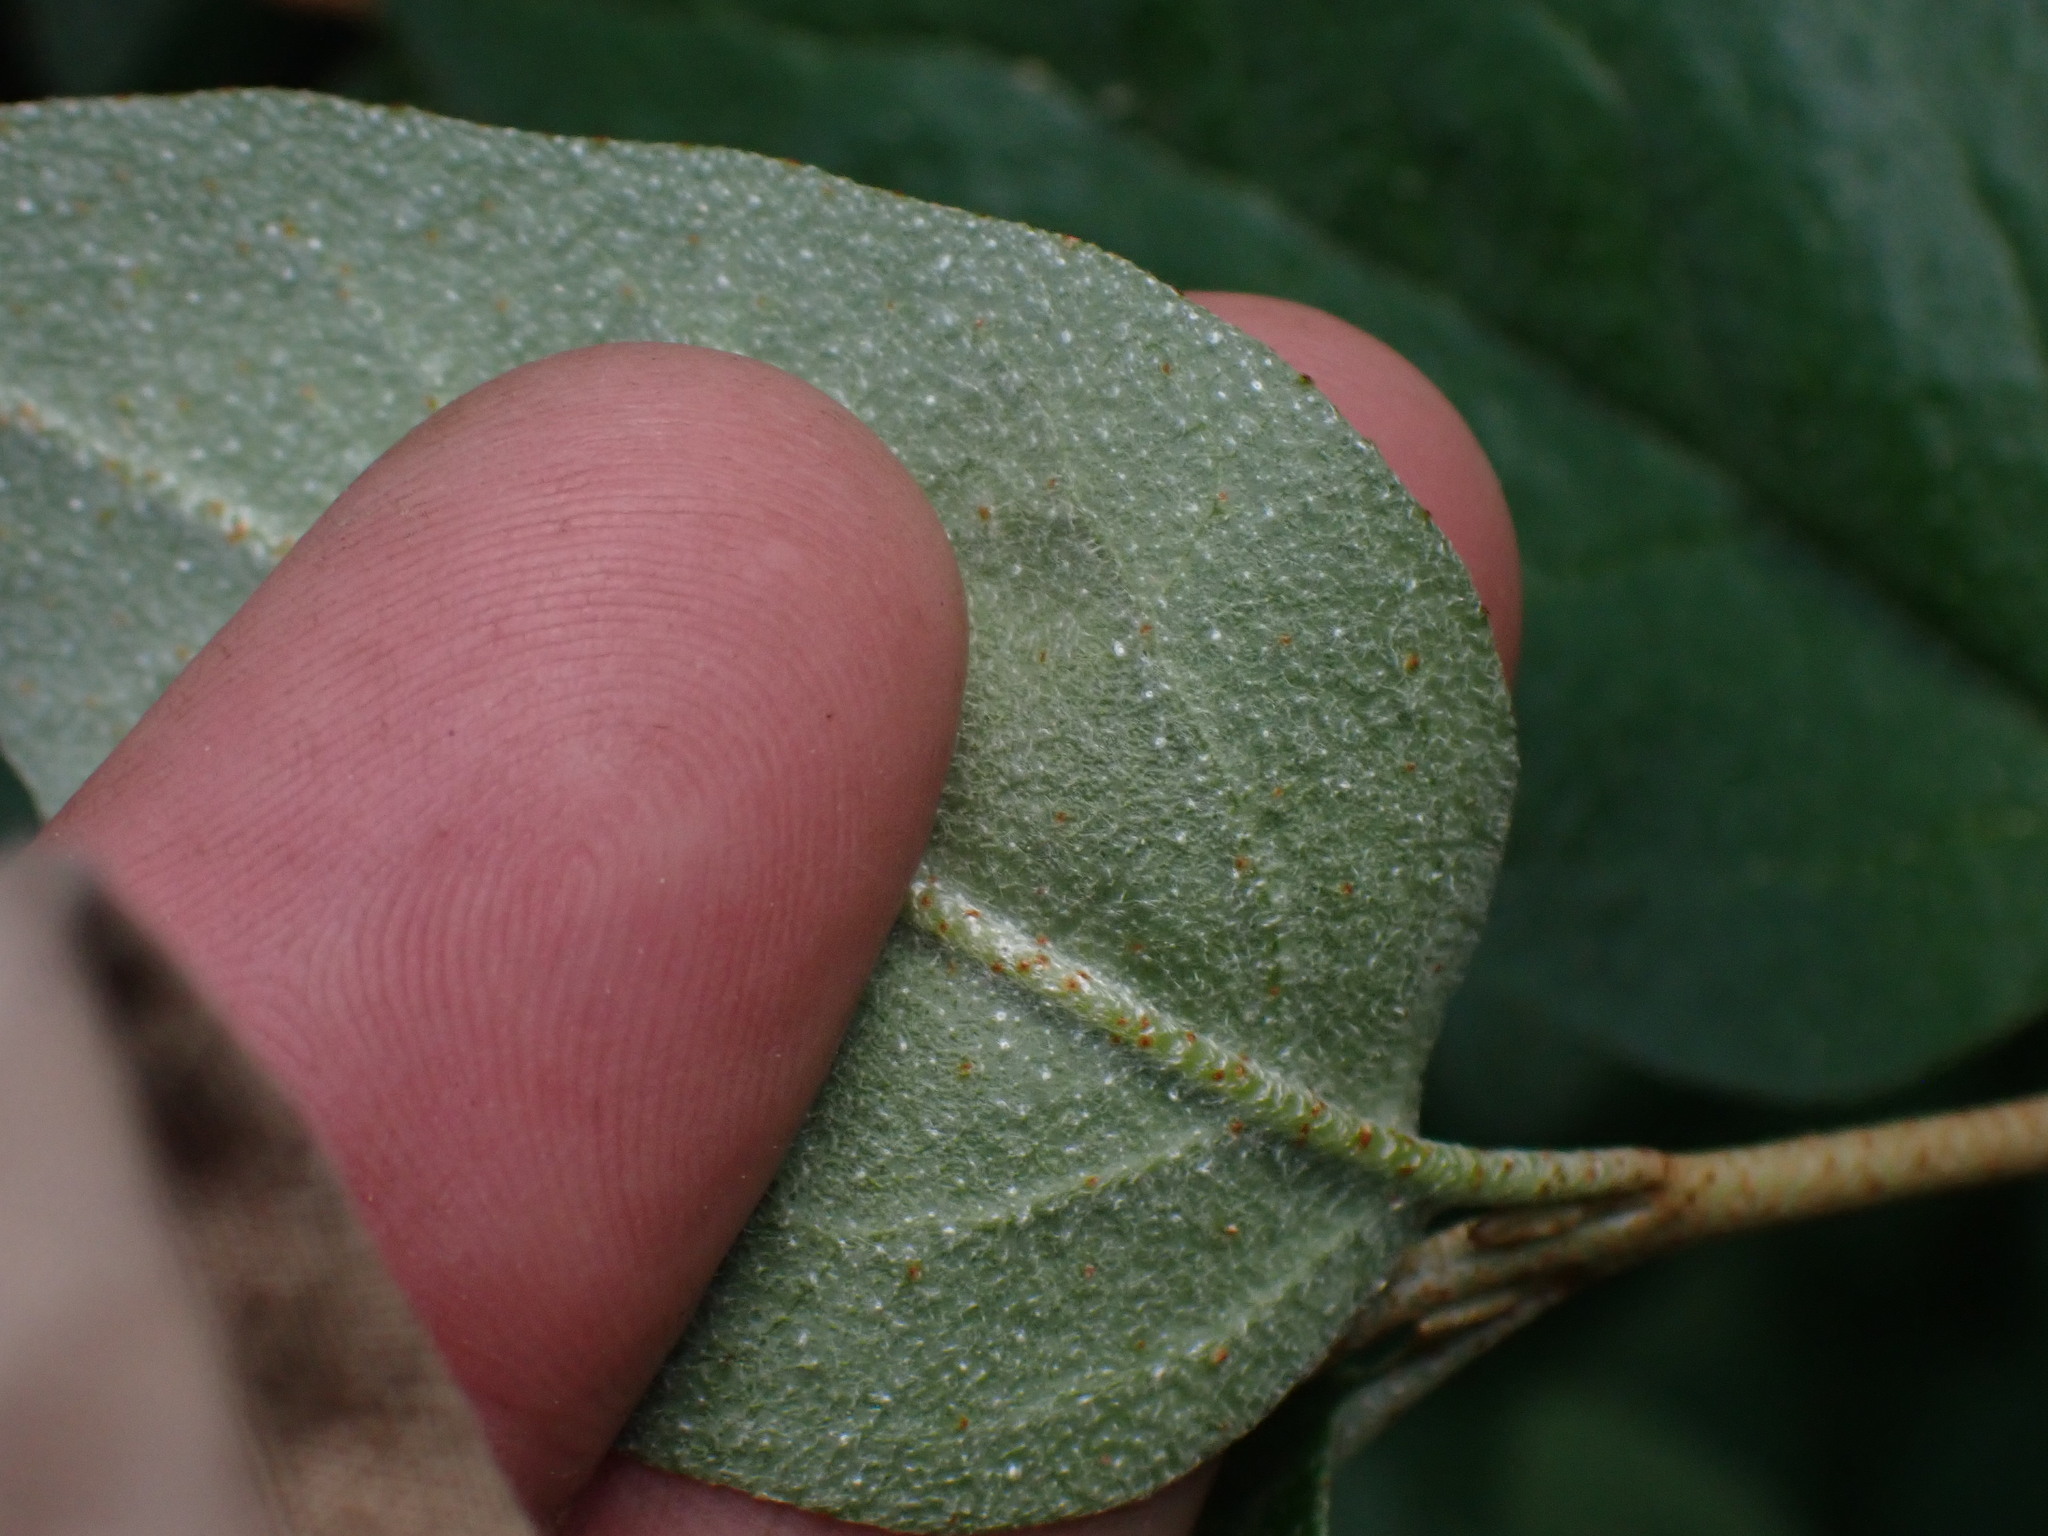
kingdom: Plantae
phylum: Tracheophyta
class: Magnoliopsida
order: Rosales
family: Elaeagnaceae
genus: Shepherdia
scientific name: Shepherdia canadensis
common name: Soapberry
